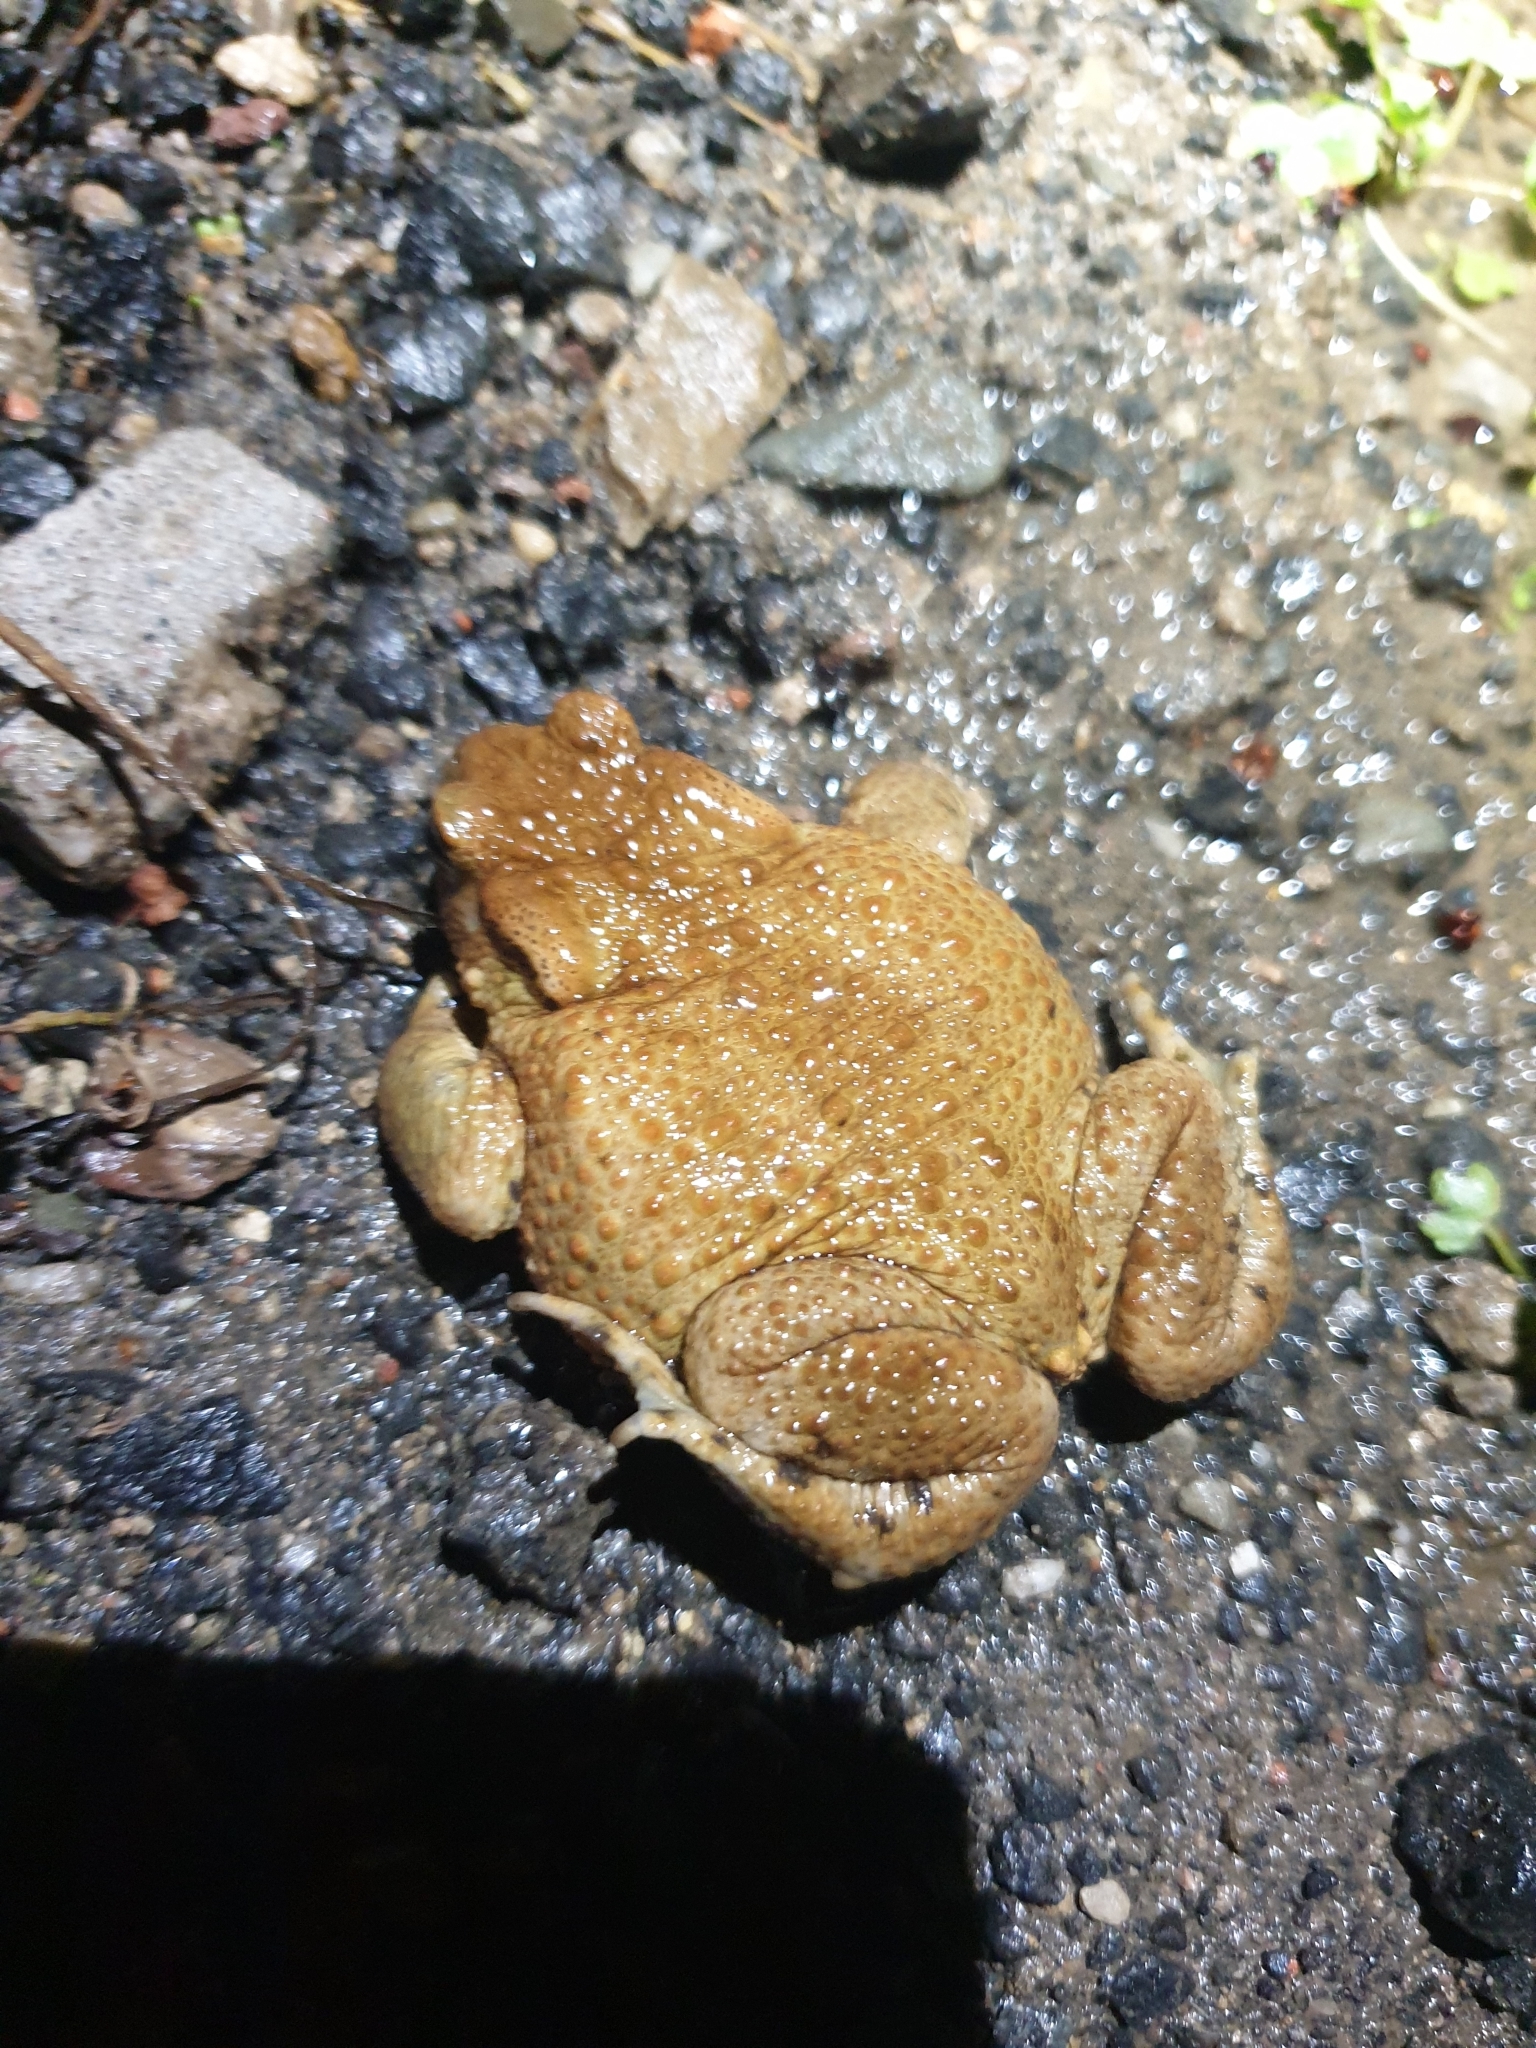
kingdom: Animalia
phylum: Chordata
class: Amphibia
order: Anura
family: Bufonidae
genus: Bufo
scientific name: Bufo bufo
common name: Common toad
